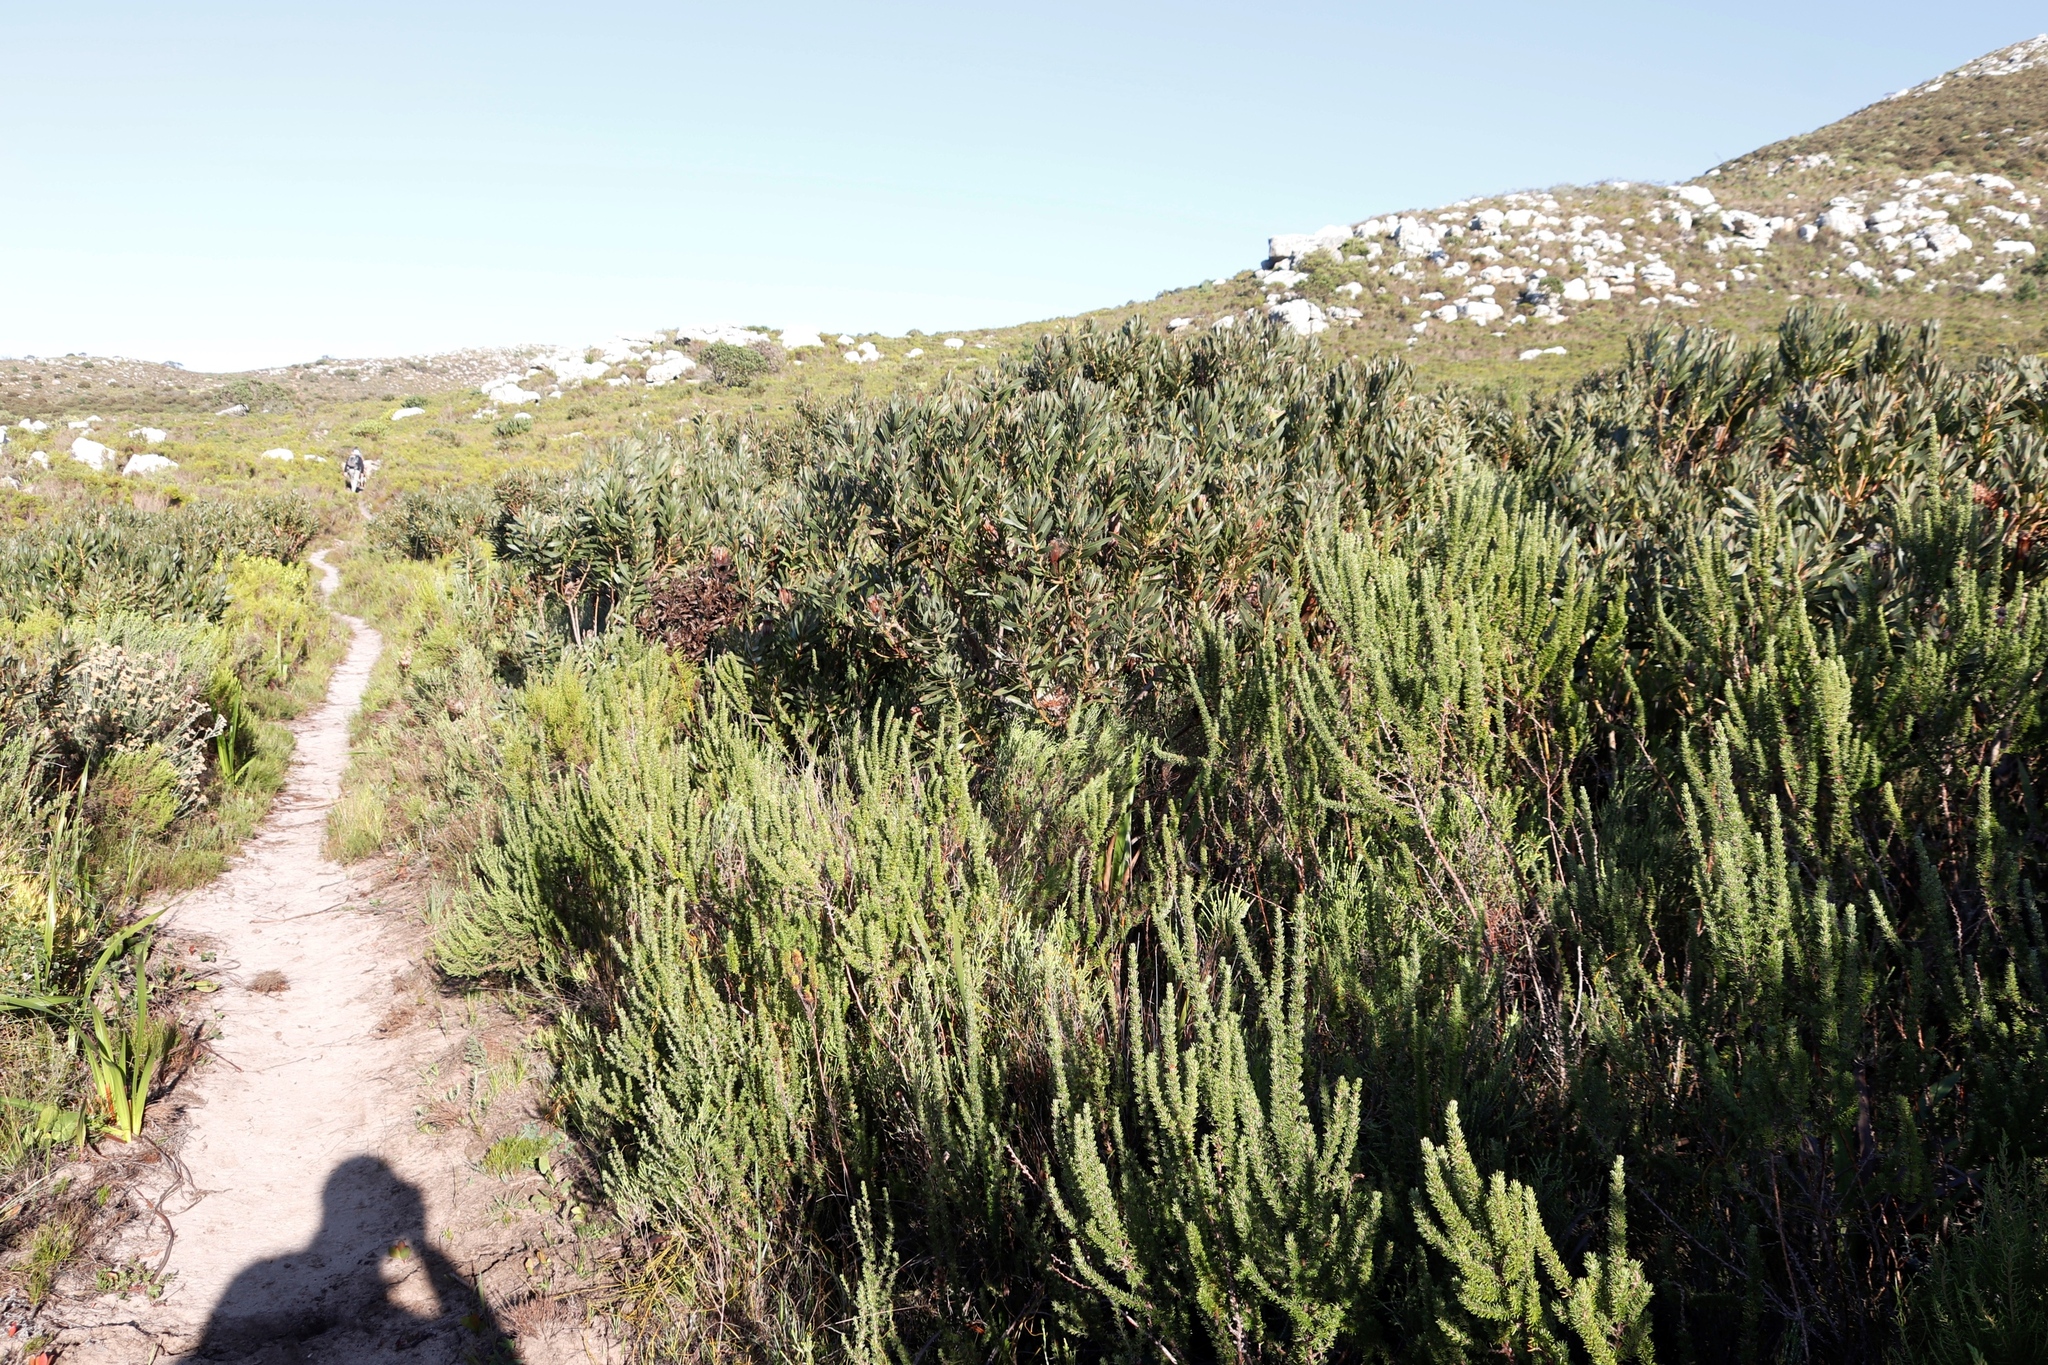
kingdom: Plantae
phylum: Tracheophyta
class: Magnoliopsida
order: Proteales
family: Proteaceae
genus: Protea
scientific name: Protea lepidocarpodendron
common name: Black-bearded protea
